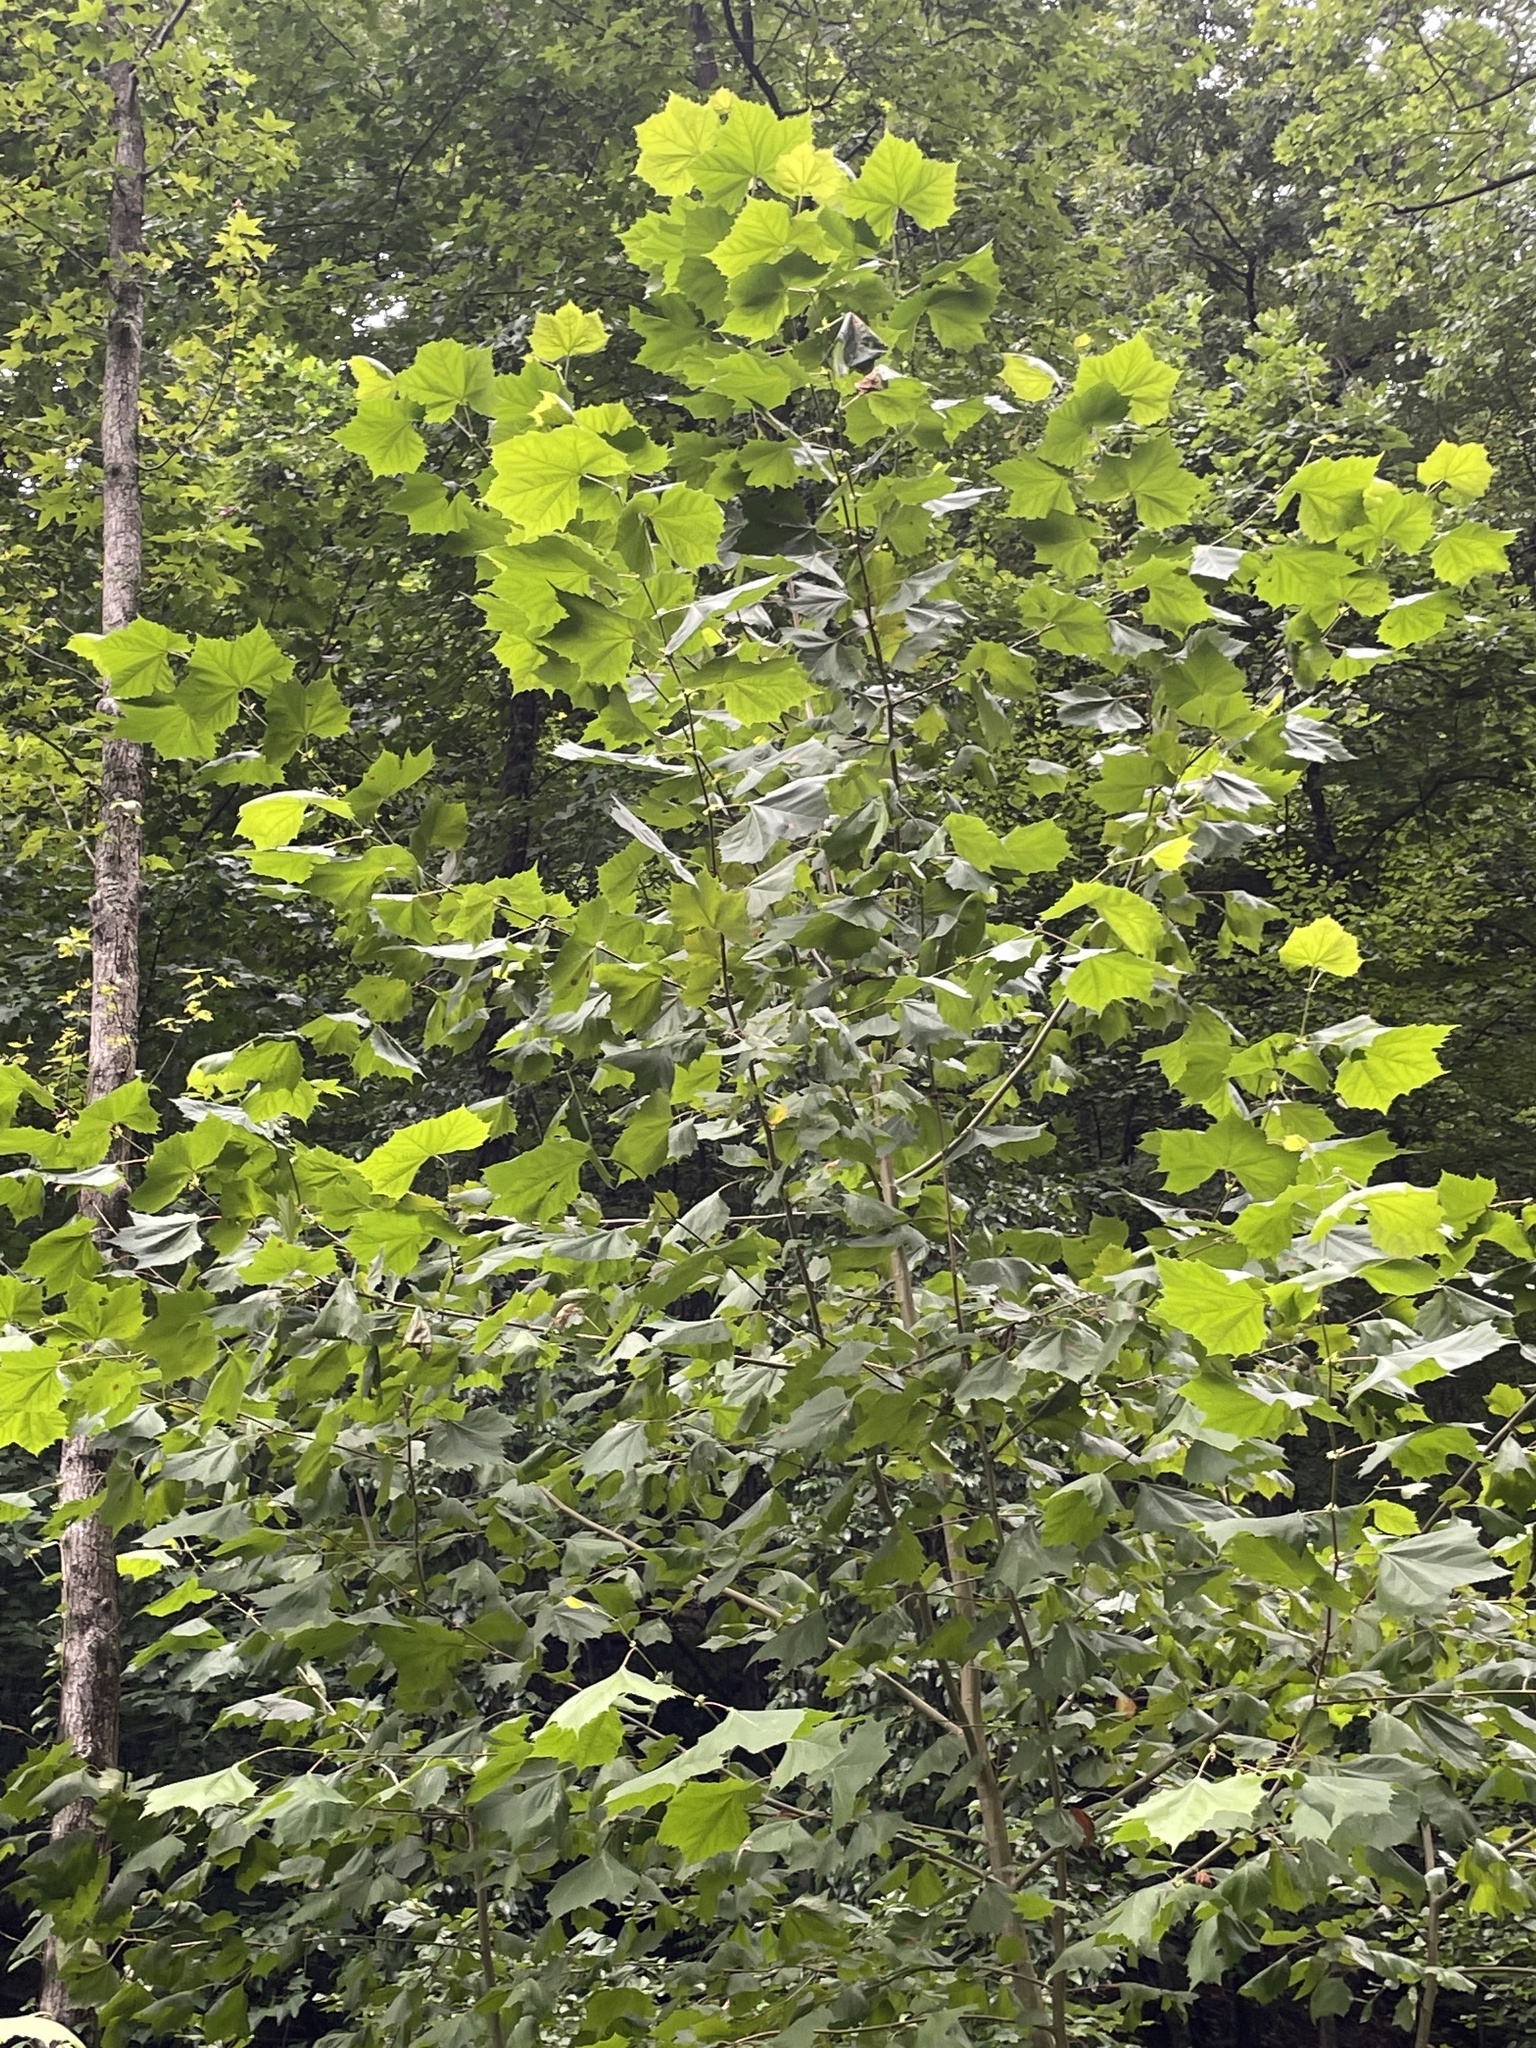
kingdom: Plantae
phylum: Tracheophyta
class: Magnoliopsida
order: Proteales
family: Platanaceae
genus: Platanus
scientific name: Platanus occidentalis
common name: American sycamore
